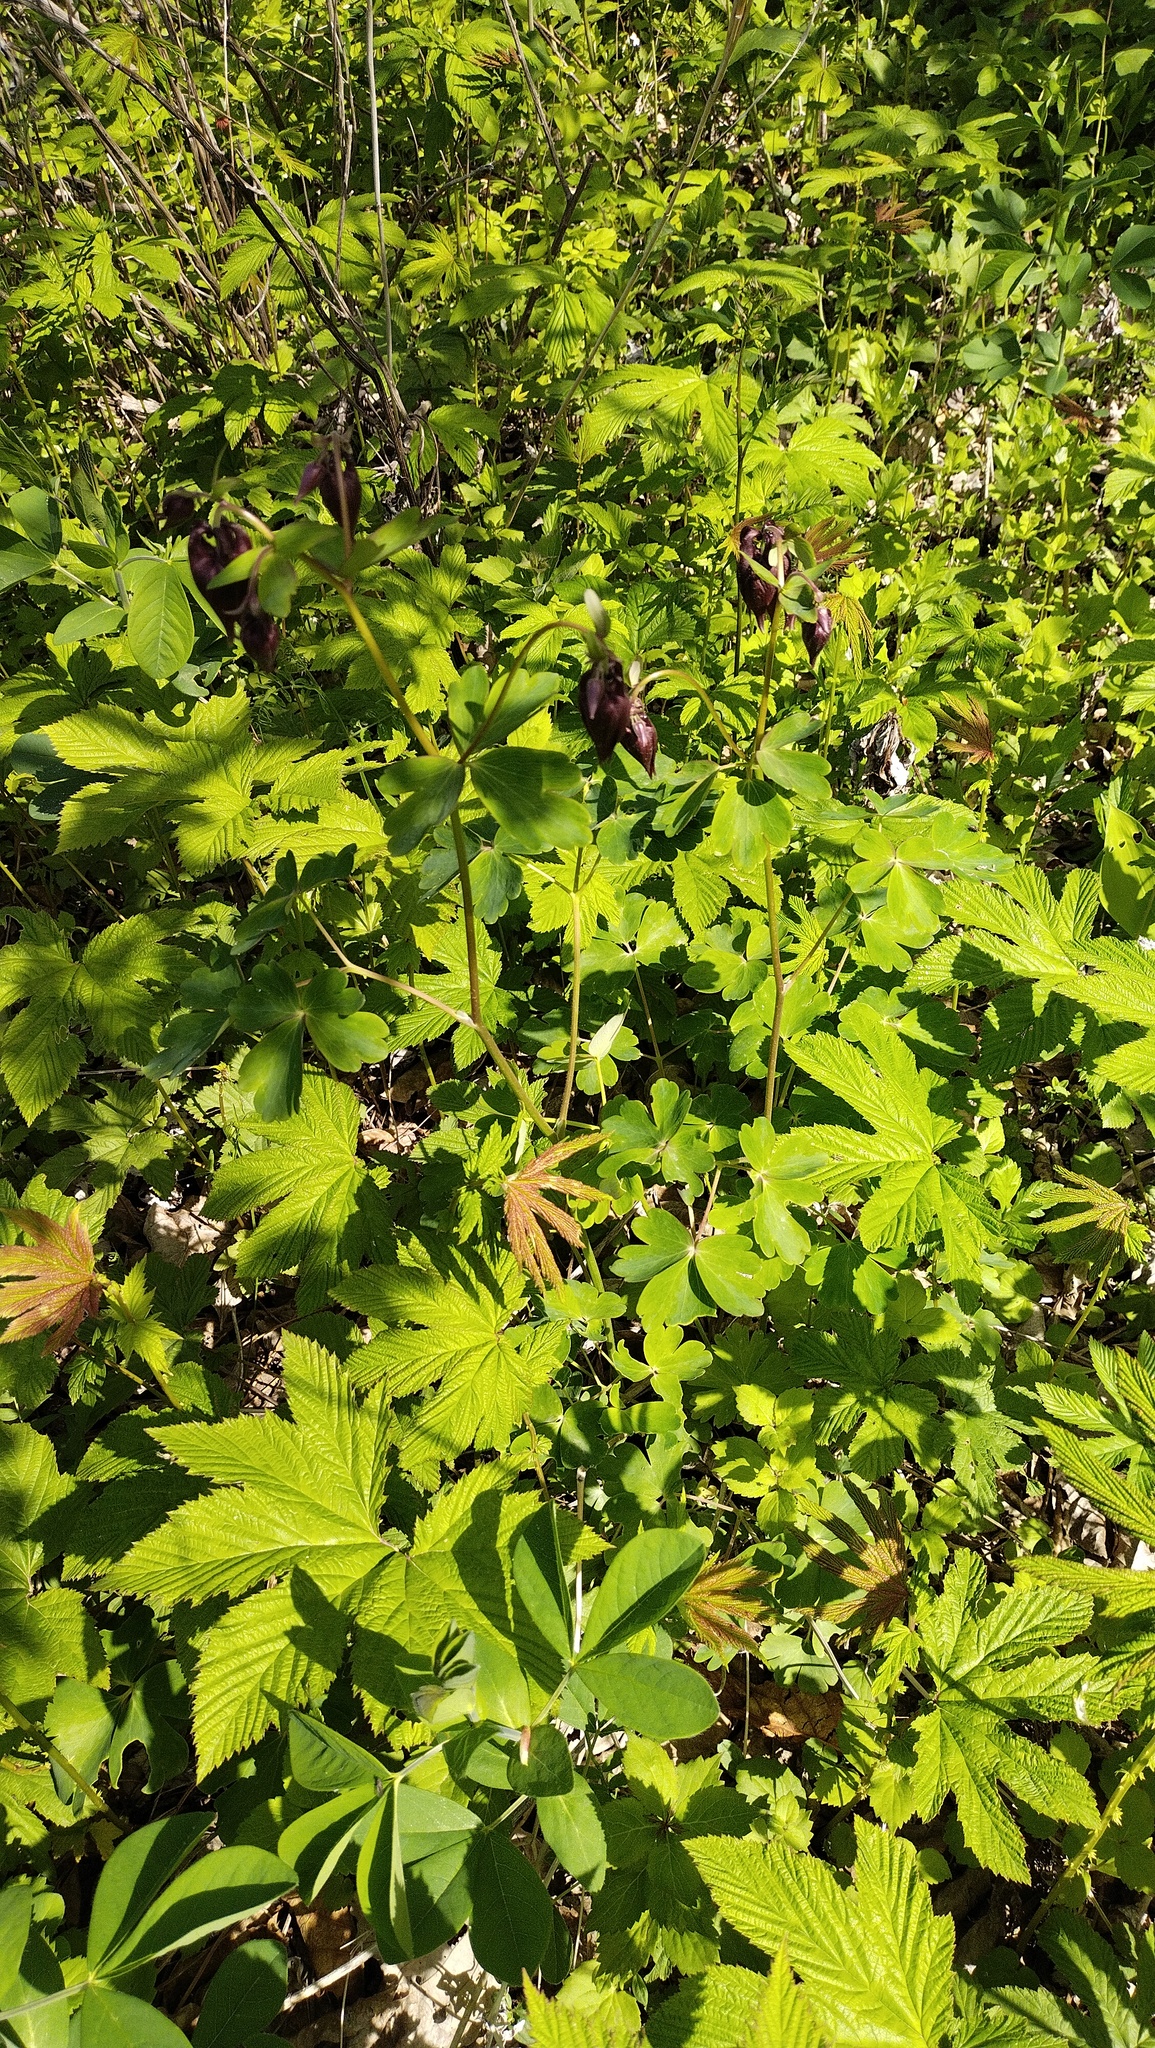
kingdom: Plantae
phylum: Tracheophyta
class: Magnoliopsida
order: Rosales
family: Rosaceae
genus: Filipendula
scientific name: Filipendula digitata
